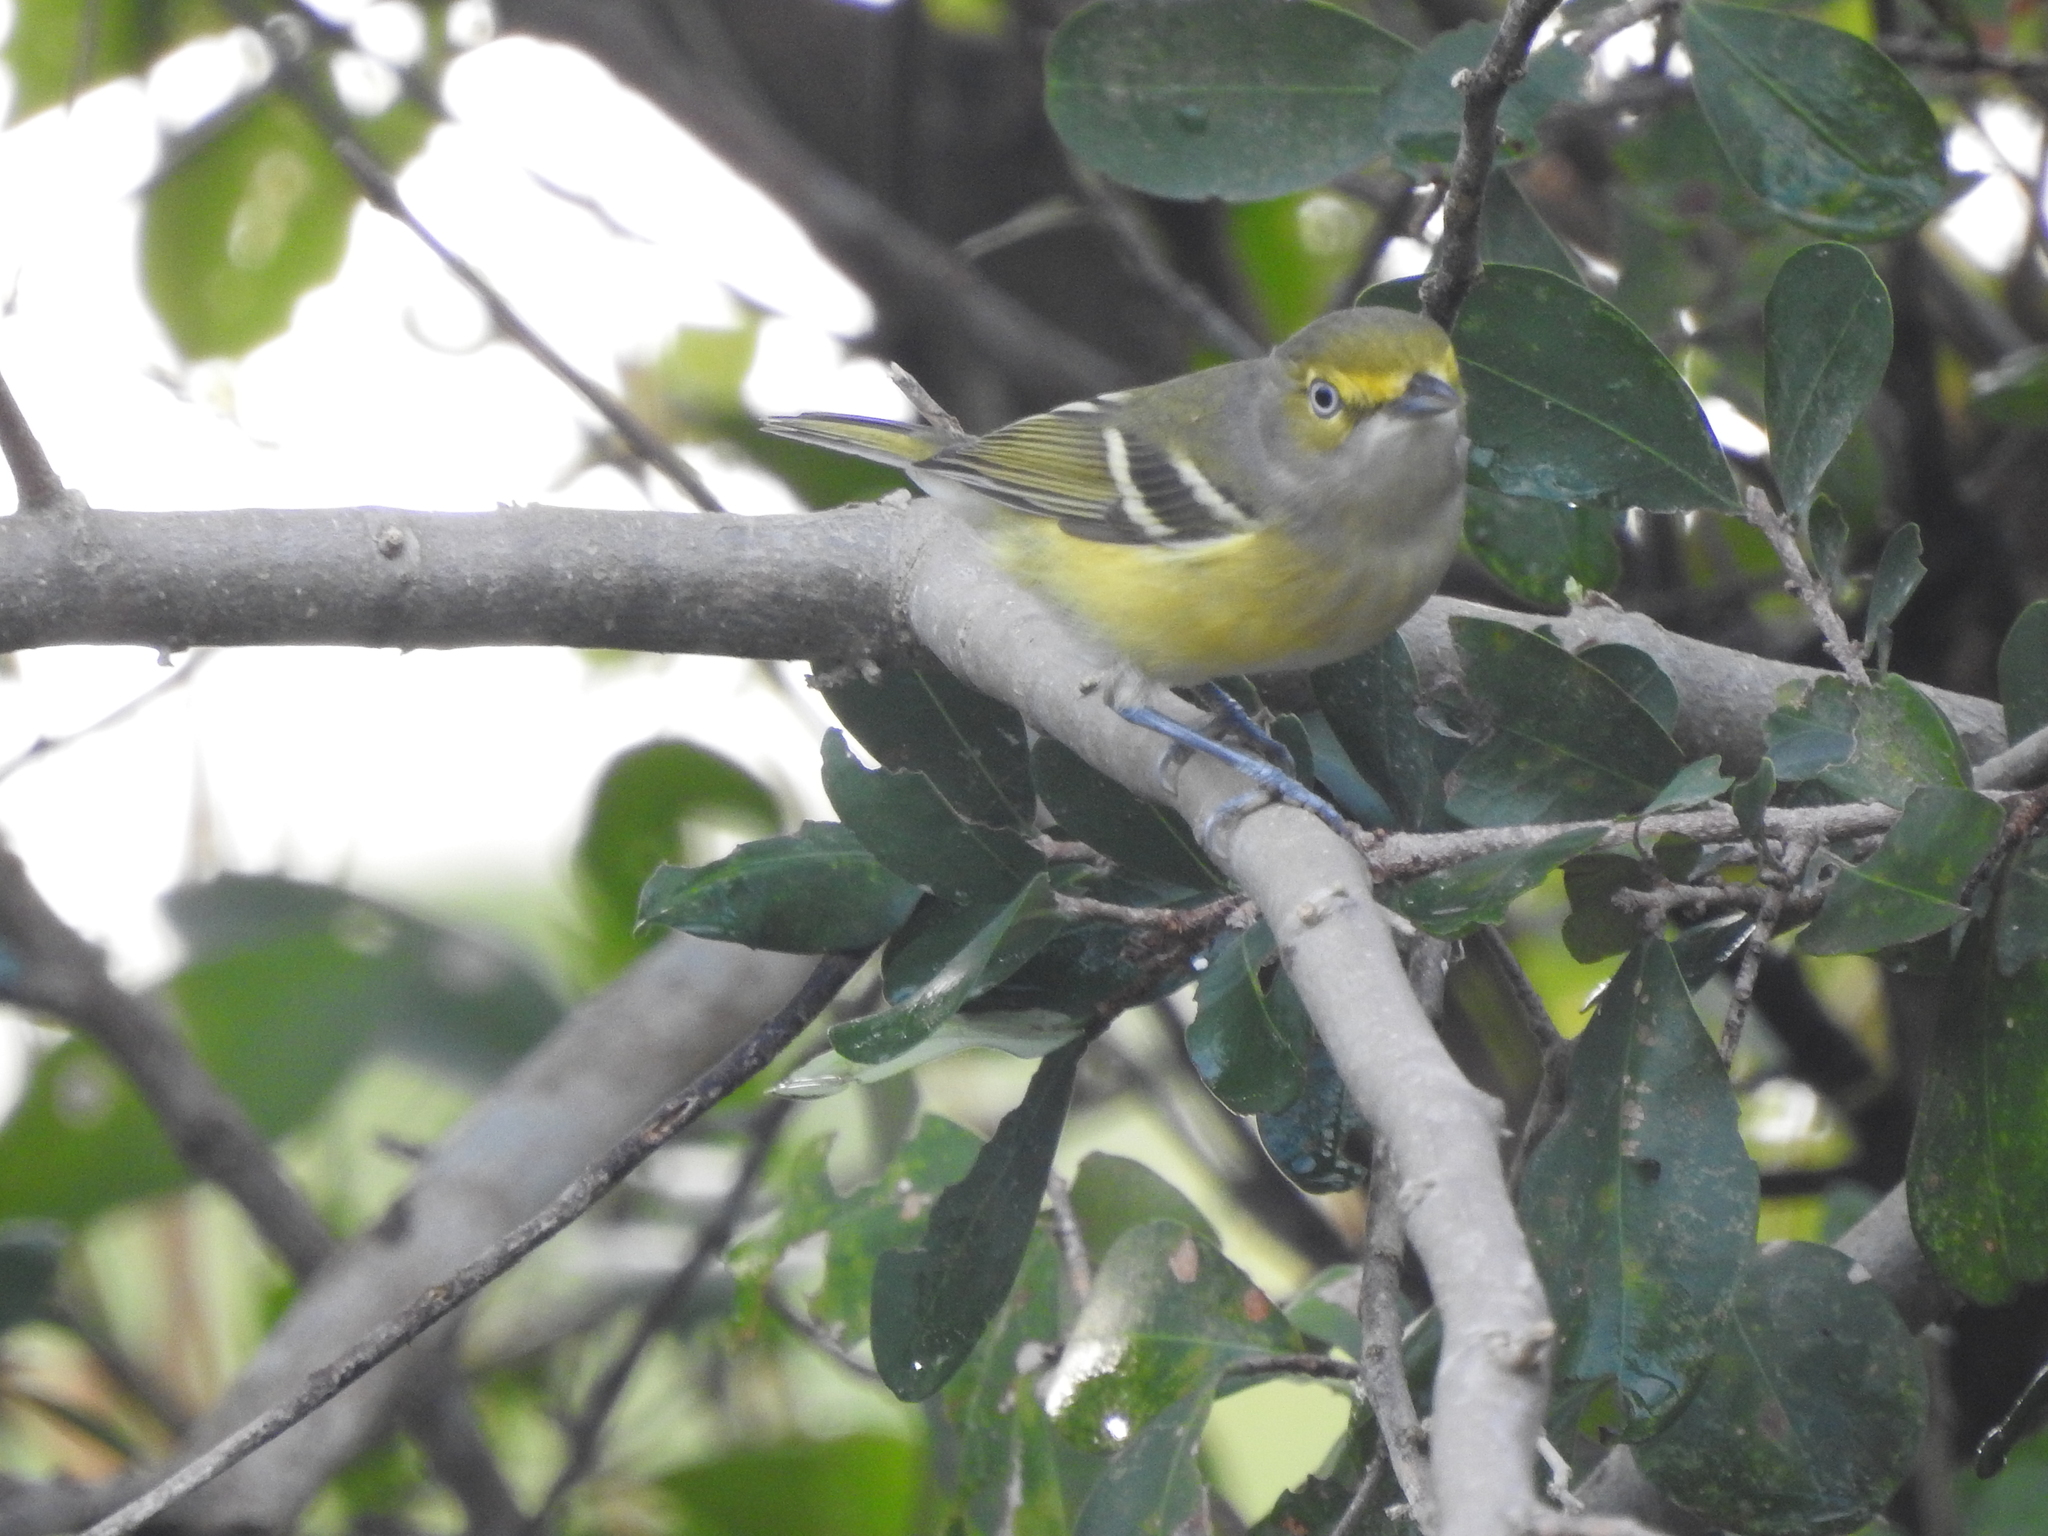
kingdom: Animalia
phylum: Chordata
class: Aves
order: Passeriformes
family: Vireonidae
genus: Vireo
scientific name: Vireo griseus
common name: White-eyed vireo
